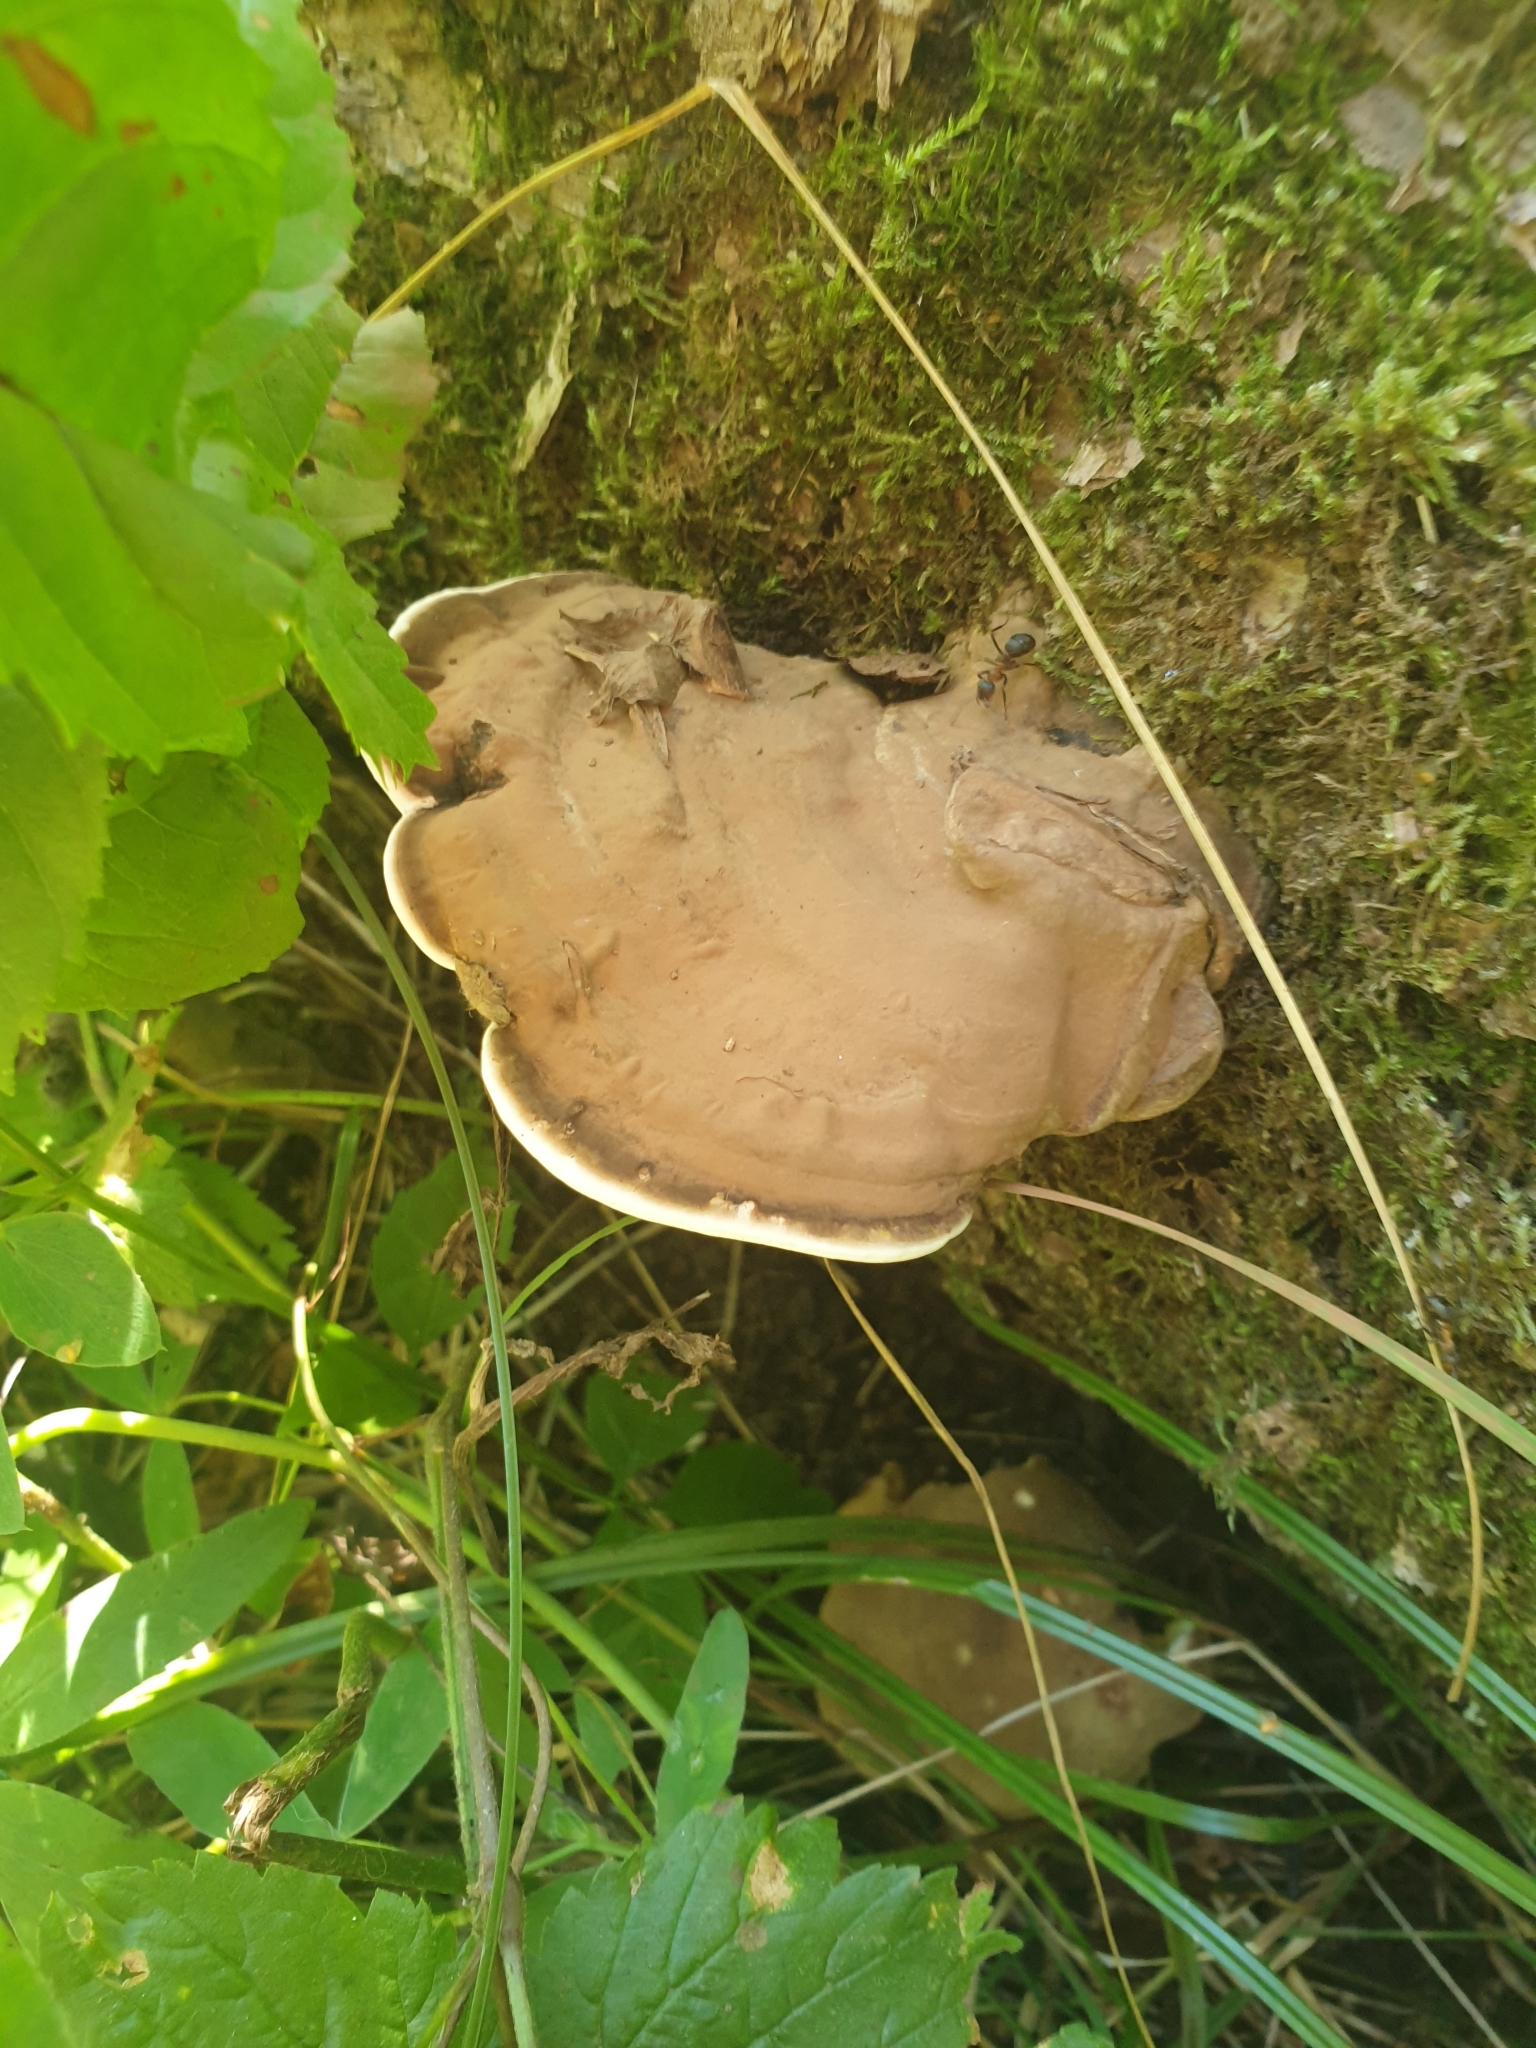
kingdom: Fungi
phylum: Basidiomycota
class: Agaricomycetes
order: Polyporales
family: Polyporaceae
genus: Ganoderma
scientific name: Ganoderma applanatum
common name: Artist's bracket
